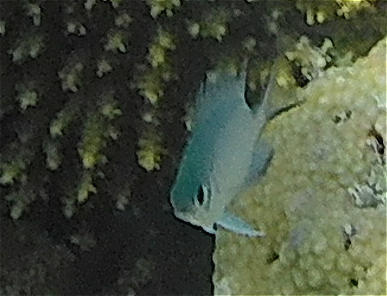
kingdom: Animalia
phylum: Chordata
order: Perciformes
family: Pomacentridae
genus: Amblyglyphidodon
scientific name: Amblyglyphidodon indicus
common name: Maldives damselfish
